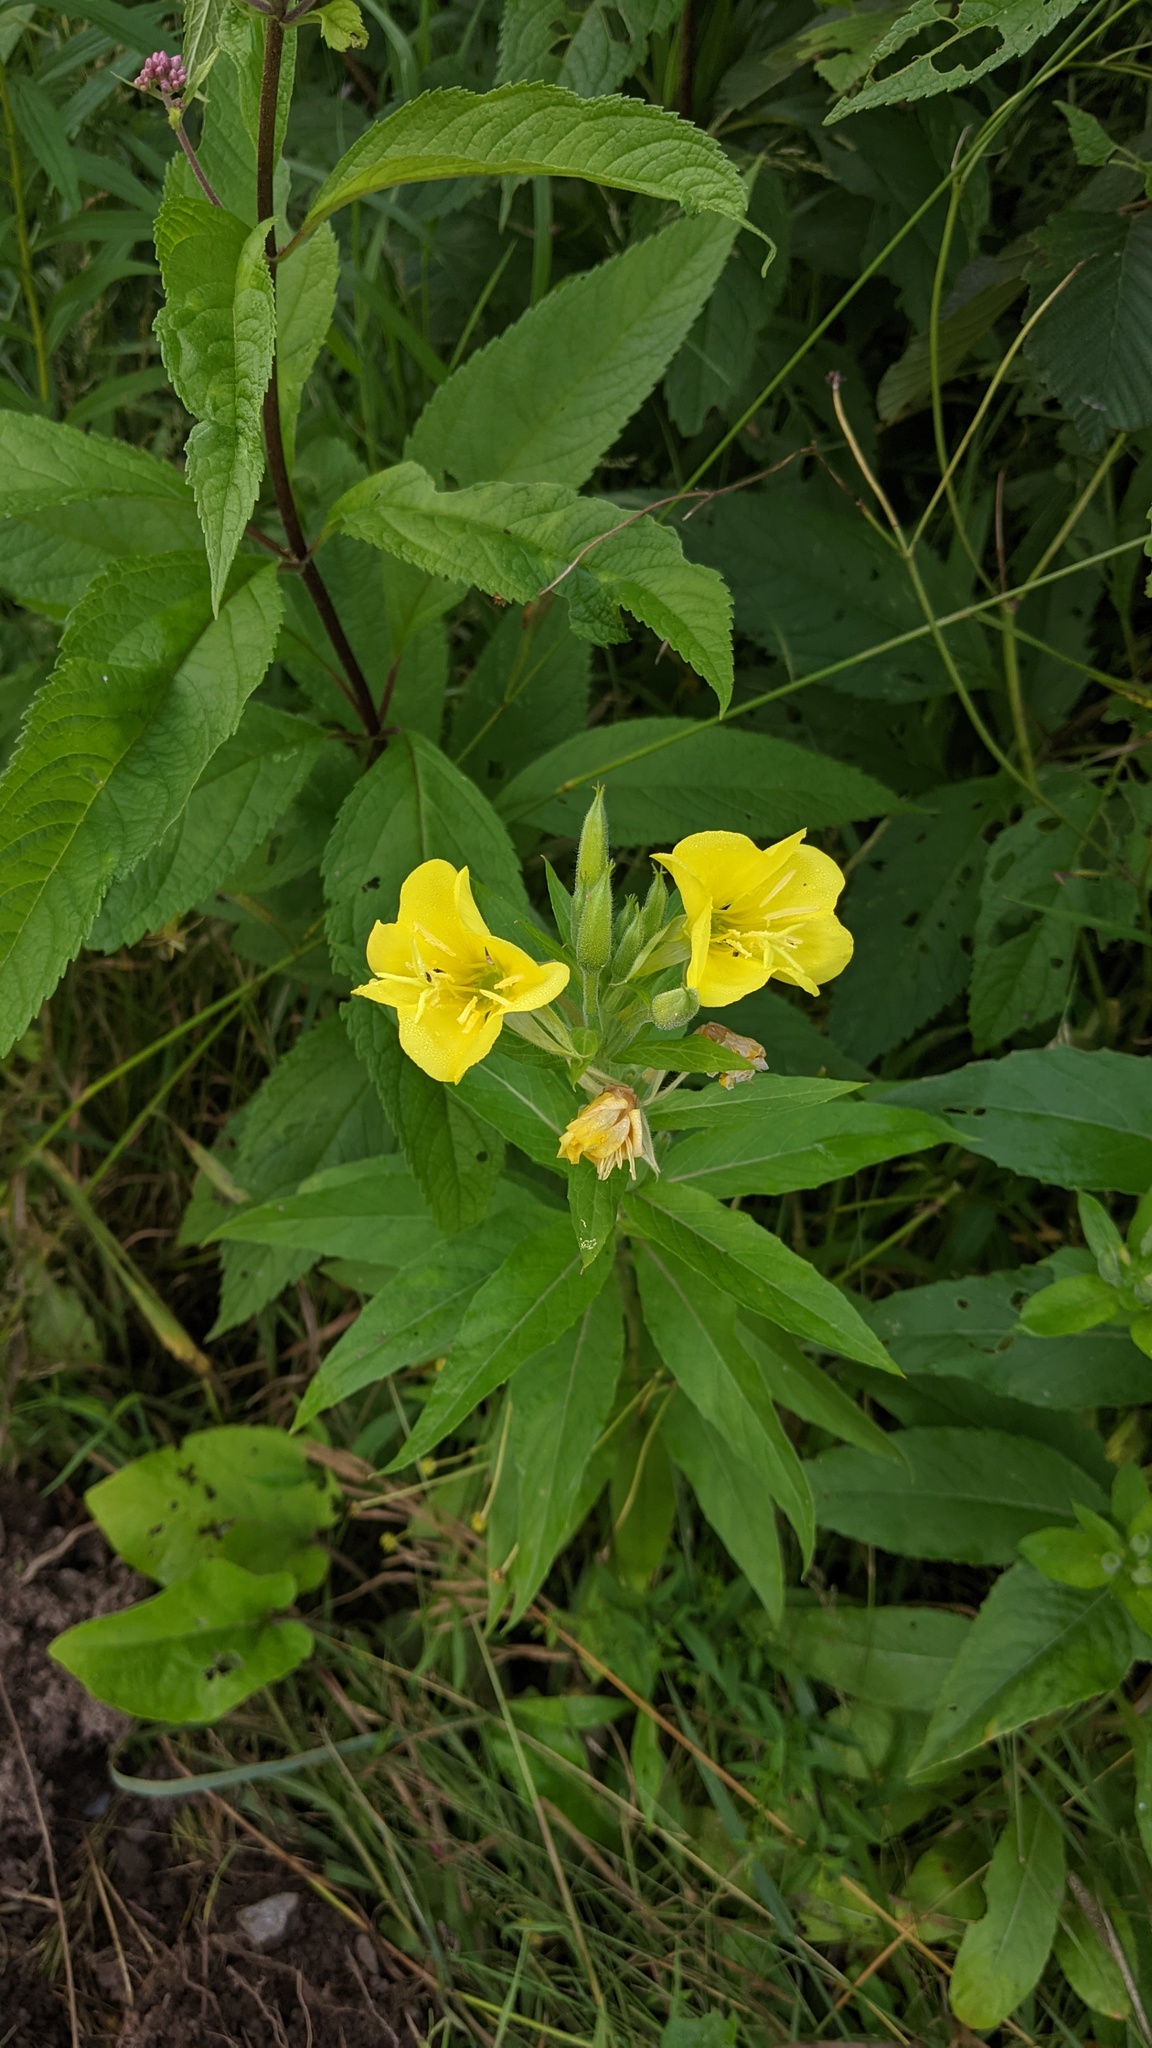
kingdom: Plantae
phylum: Tracheophyta
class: Magnoliopsida
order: Myrtales
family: Onagraceae
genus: Oenothera
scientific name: Oenothera biennis
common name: Common evening-primrose
